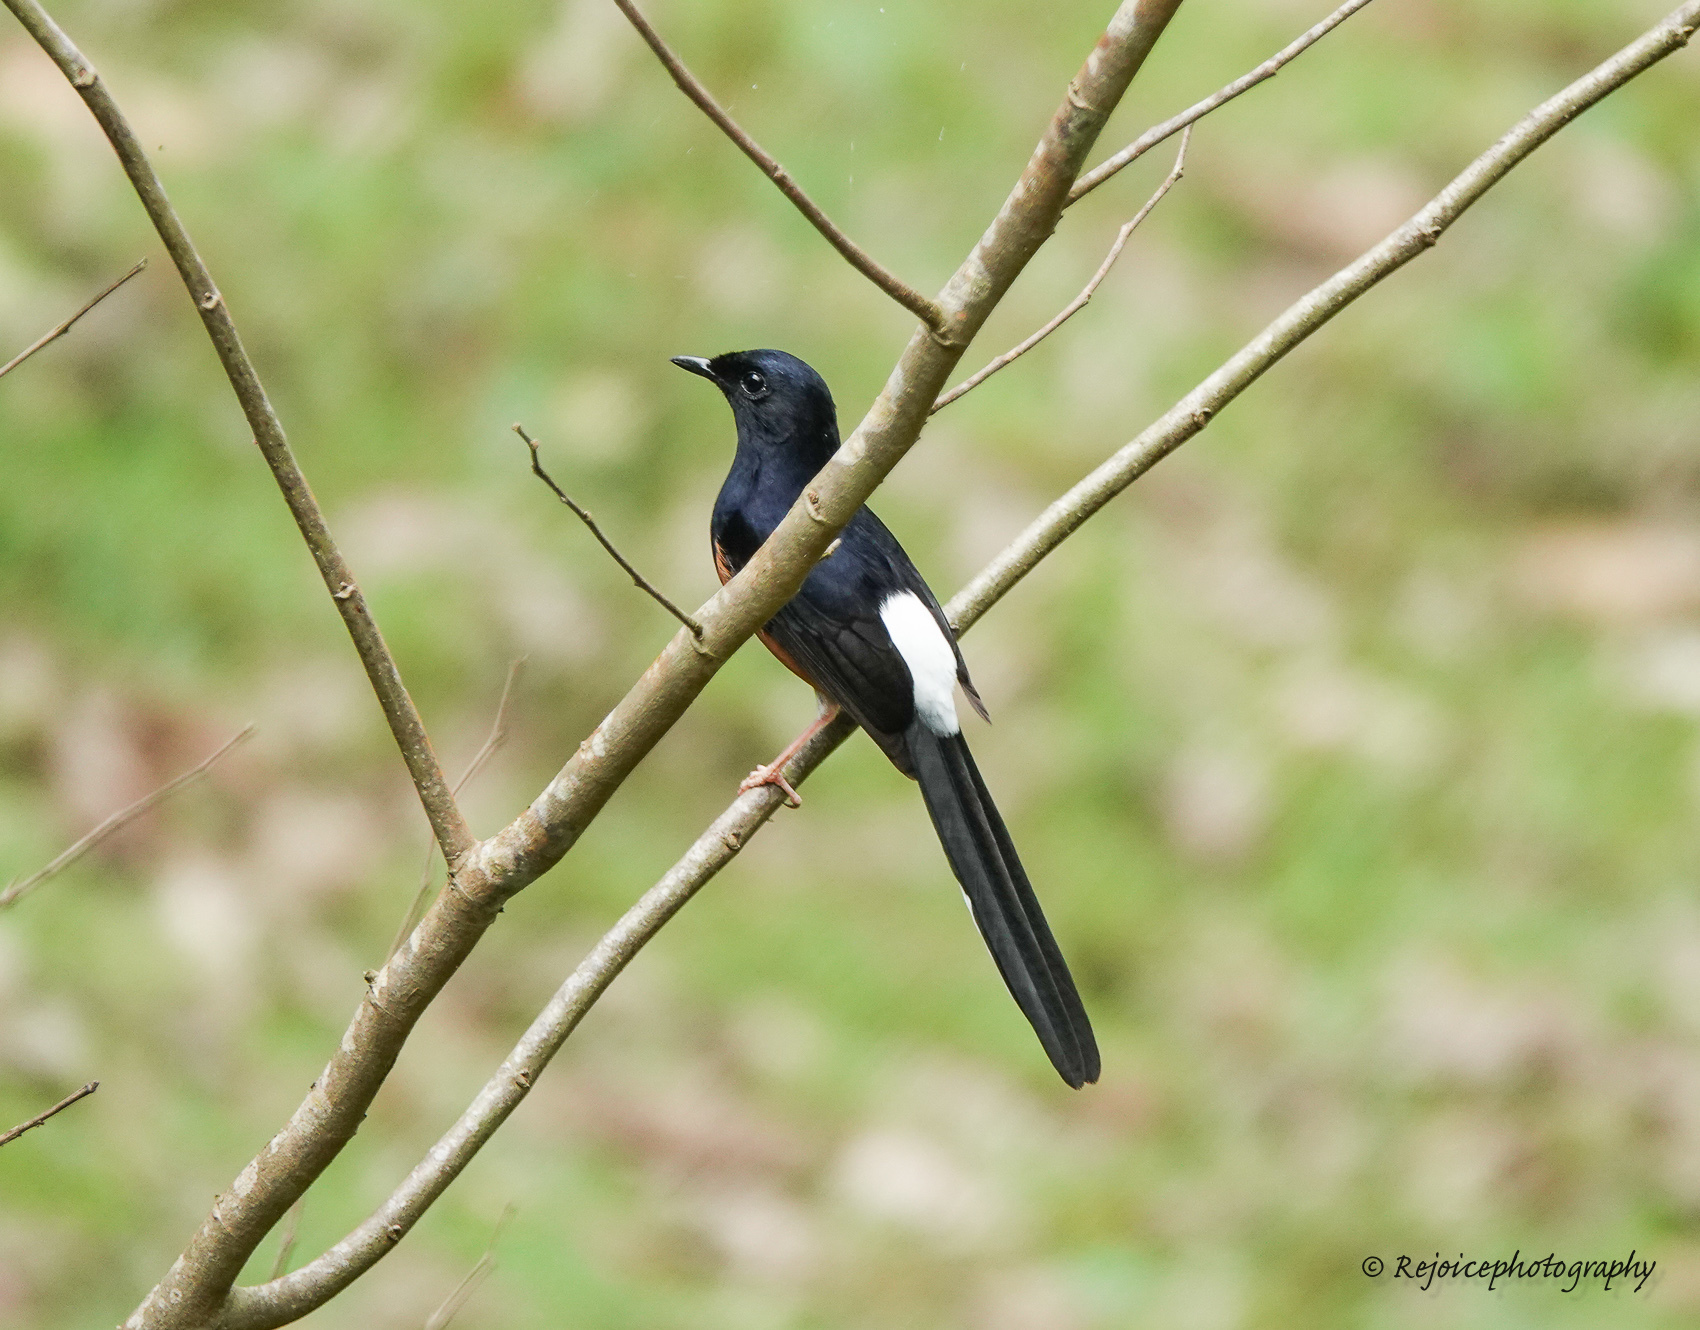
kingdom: Animalia
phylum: Chordata
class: Aves
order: Passeriformes
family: Muscicapidae
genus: Copsychus
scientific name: Copsychus malabaricus
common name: White-rumped shama
